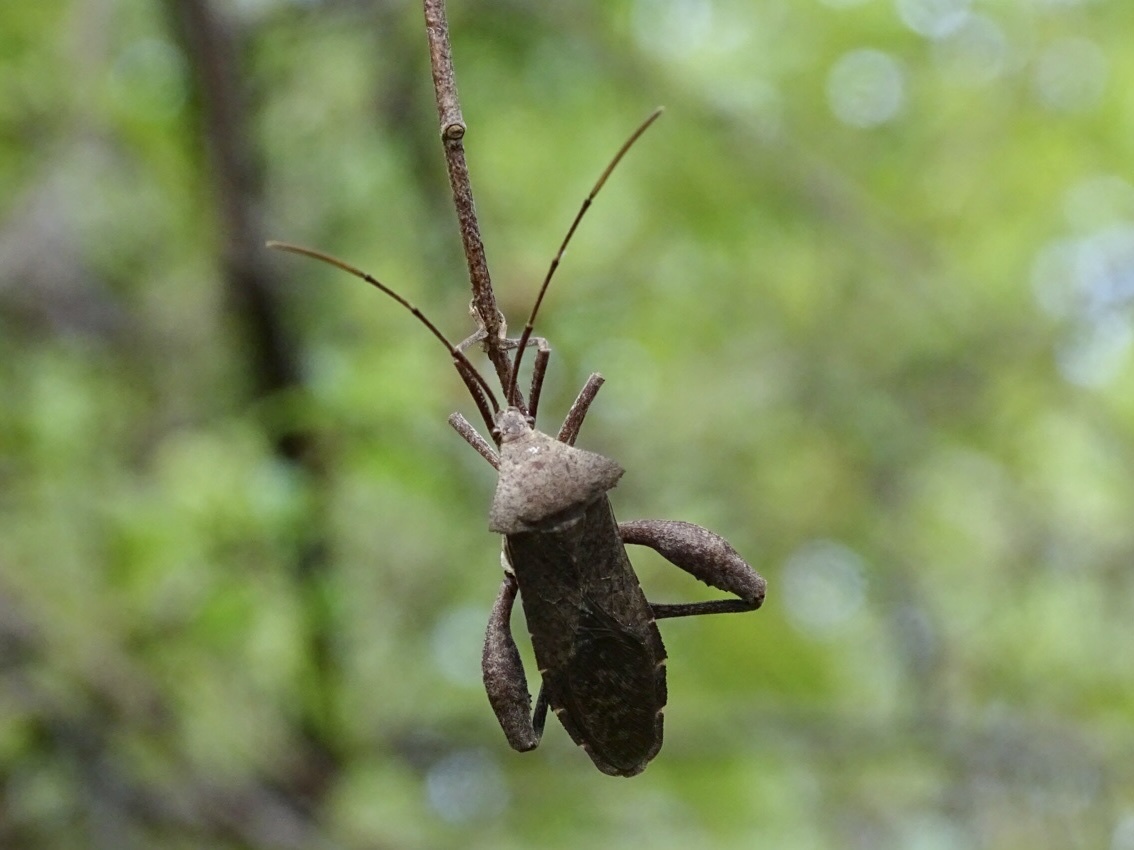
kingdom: Animalia
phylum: Arthropoda
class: Insecta
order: Hemiptera
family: Coreidae
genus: Mictis
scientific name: Mictis gallina
